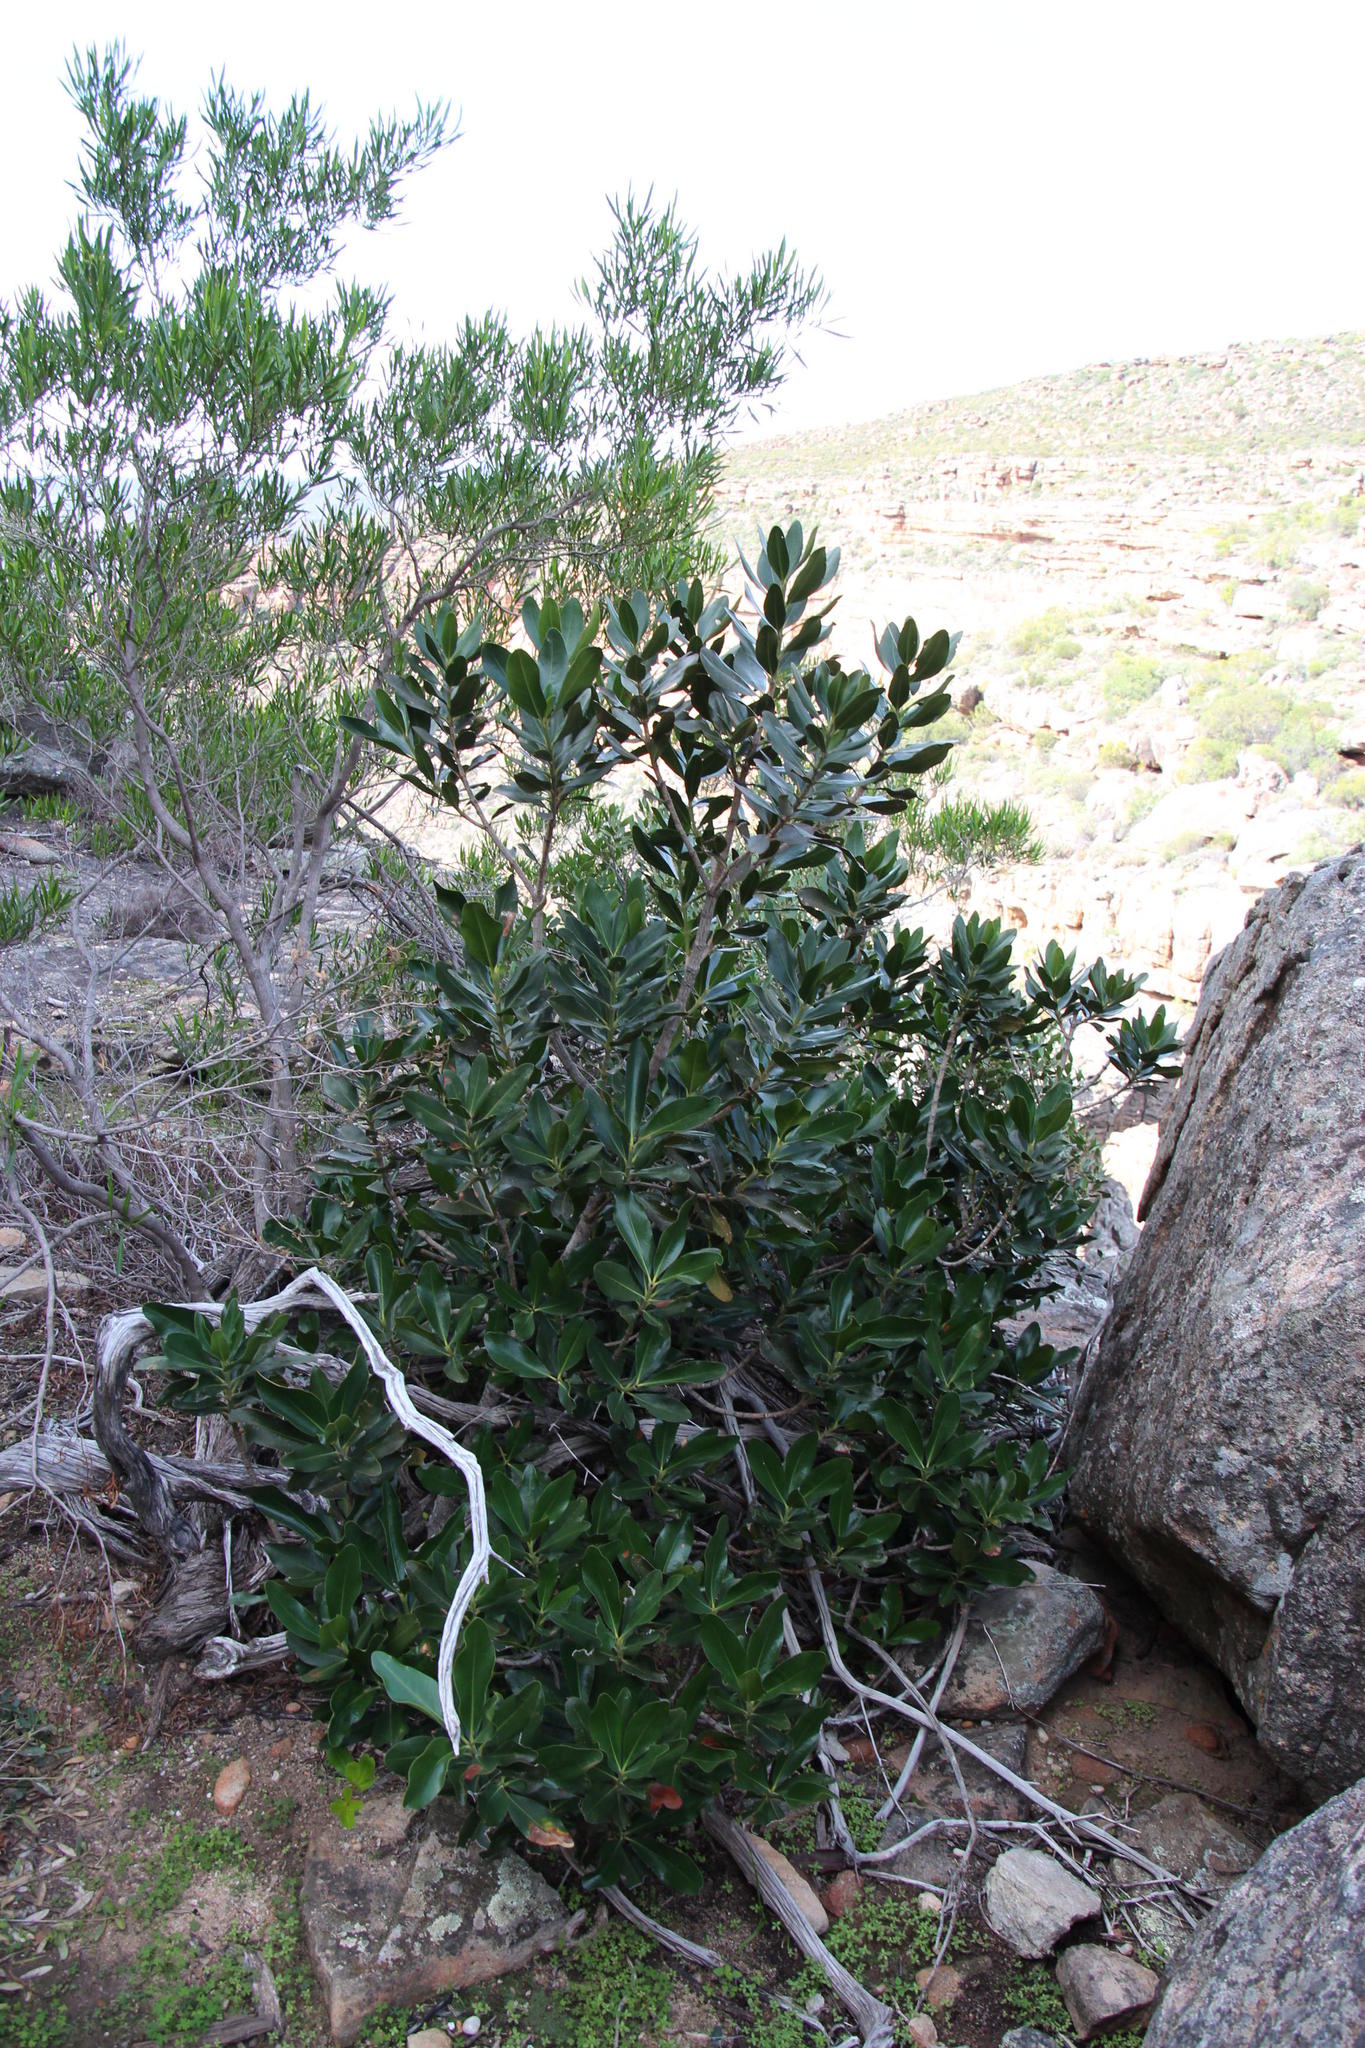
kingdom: Plantae
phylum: Tracheophyta
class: Magnoliopsida
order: Malpighiales
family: Picrodendraceae
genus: Hyaenanche
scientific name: Hyaenanche globosa
